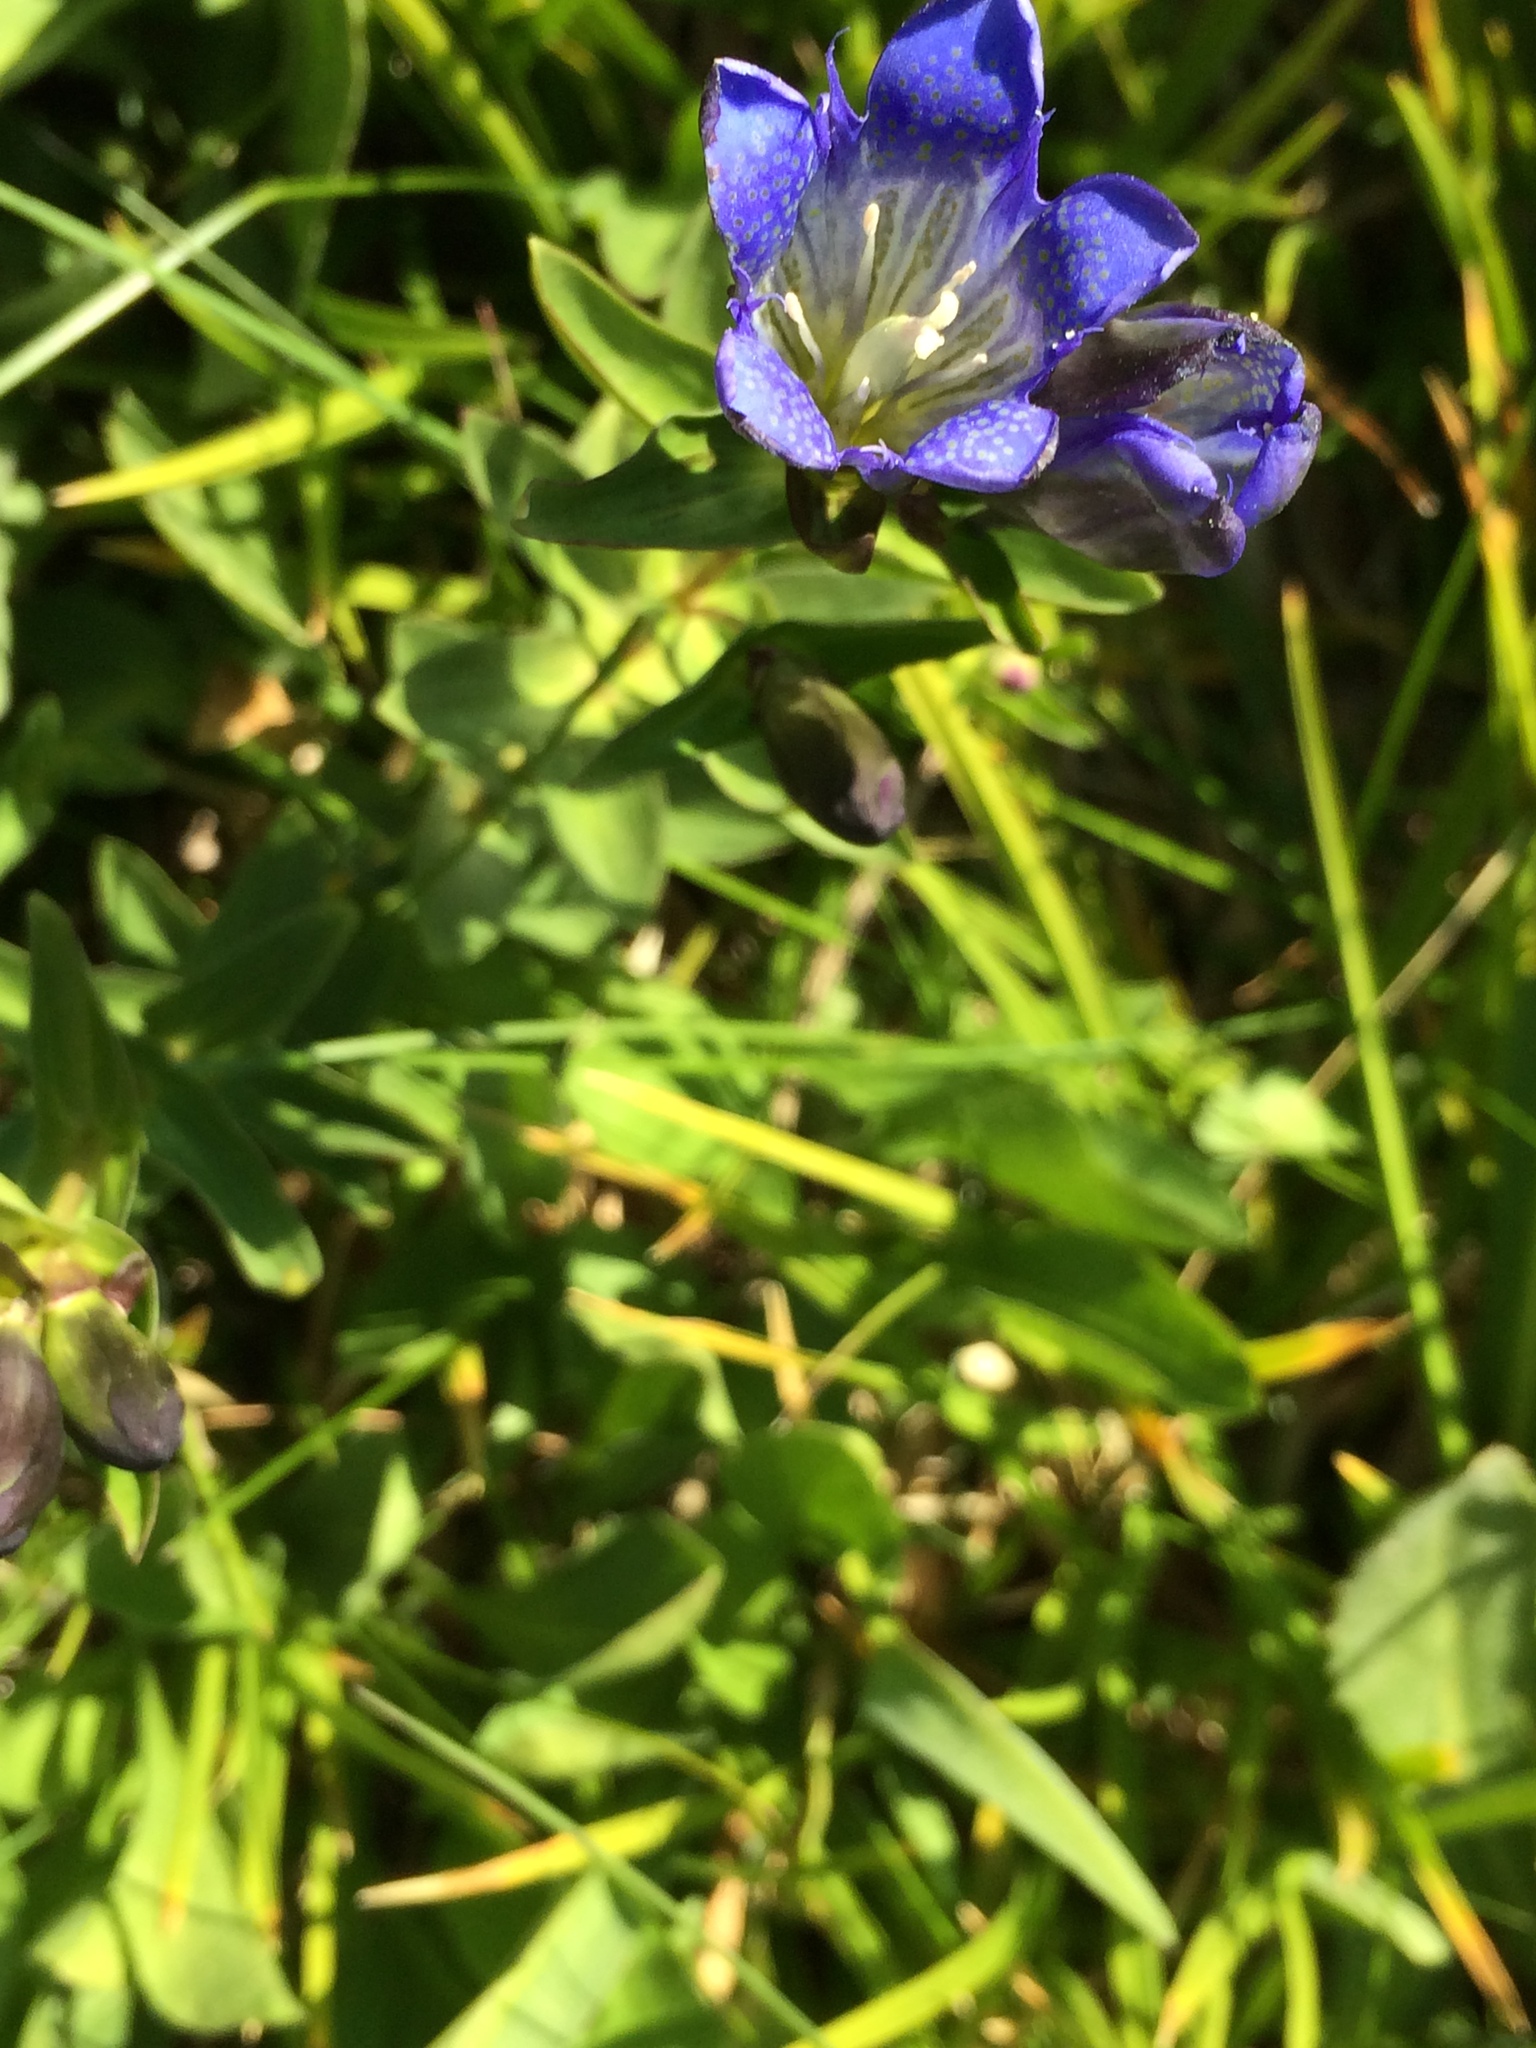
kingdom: Plantae
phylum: Tracheophyta
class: Magnoliopsida
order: Gentianales
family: Gentianaceae
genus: Gentiana
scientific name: Gentiana calycosa
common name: Rainier pleated gentian
